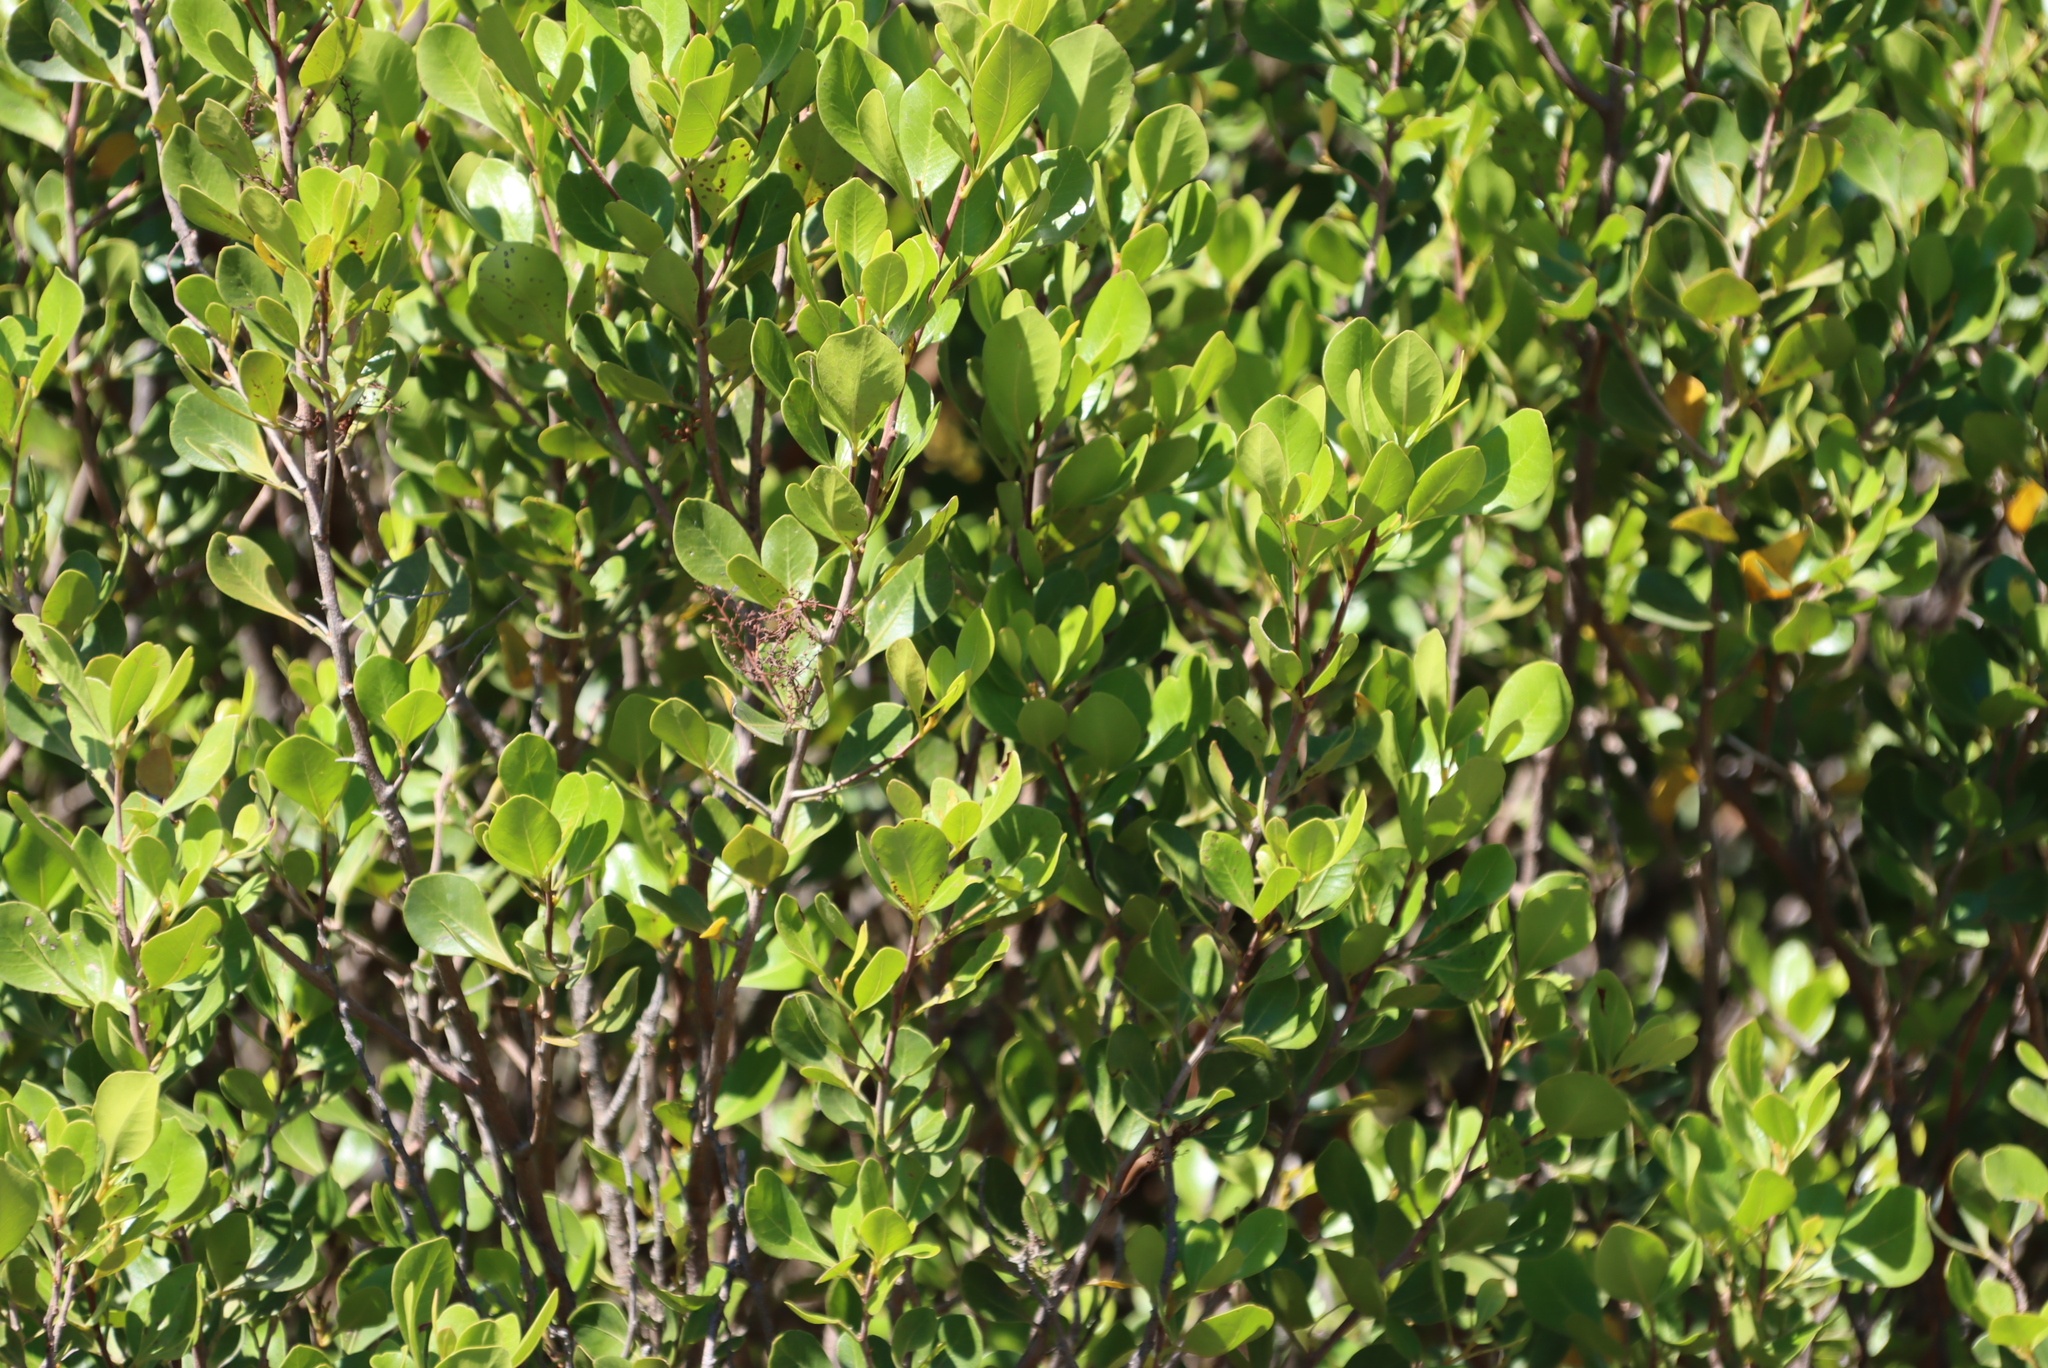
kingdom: Plantae
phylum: Tracheophyta
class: Magnoliopsida
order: Sapindales
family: Anacardiaceae
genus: Searsia
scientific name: Searsia lucida
